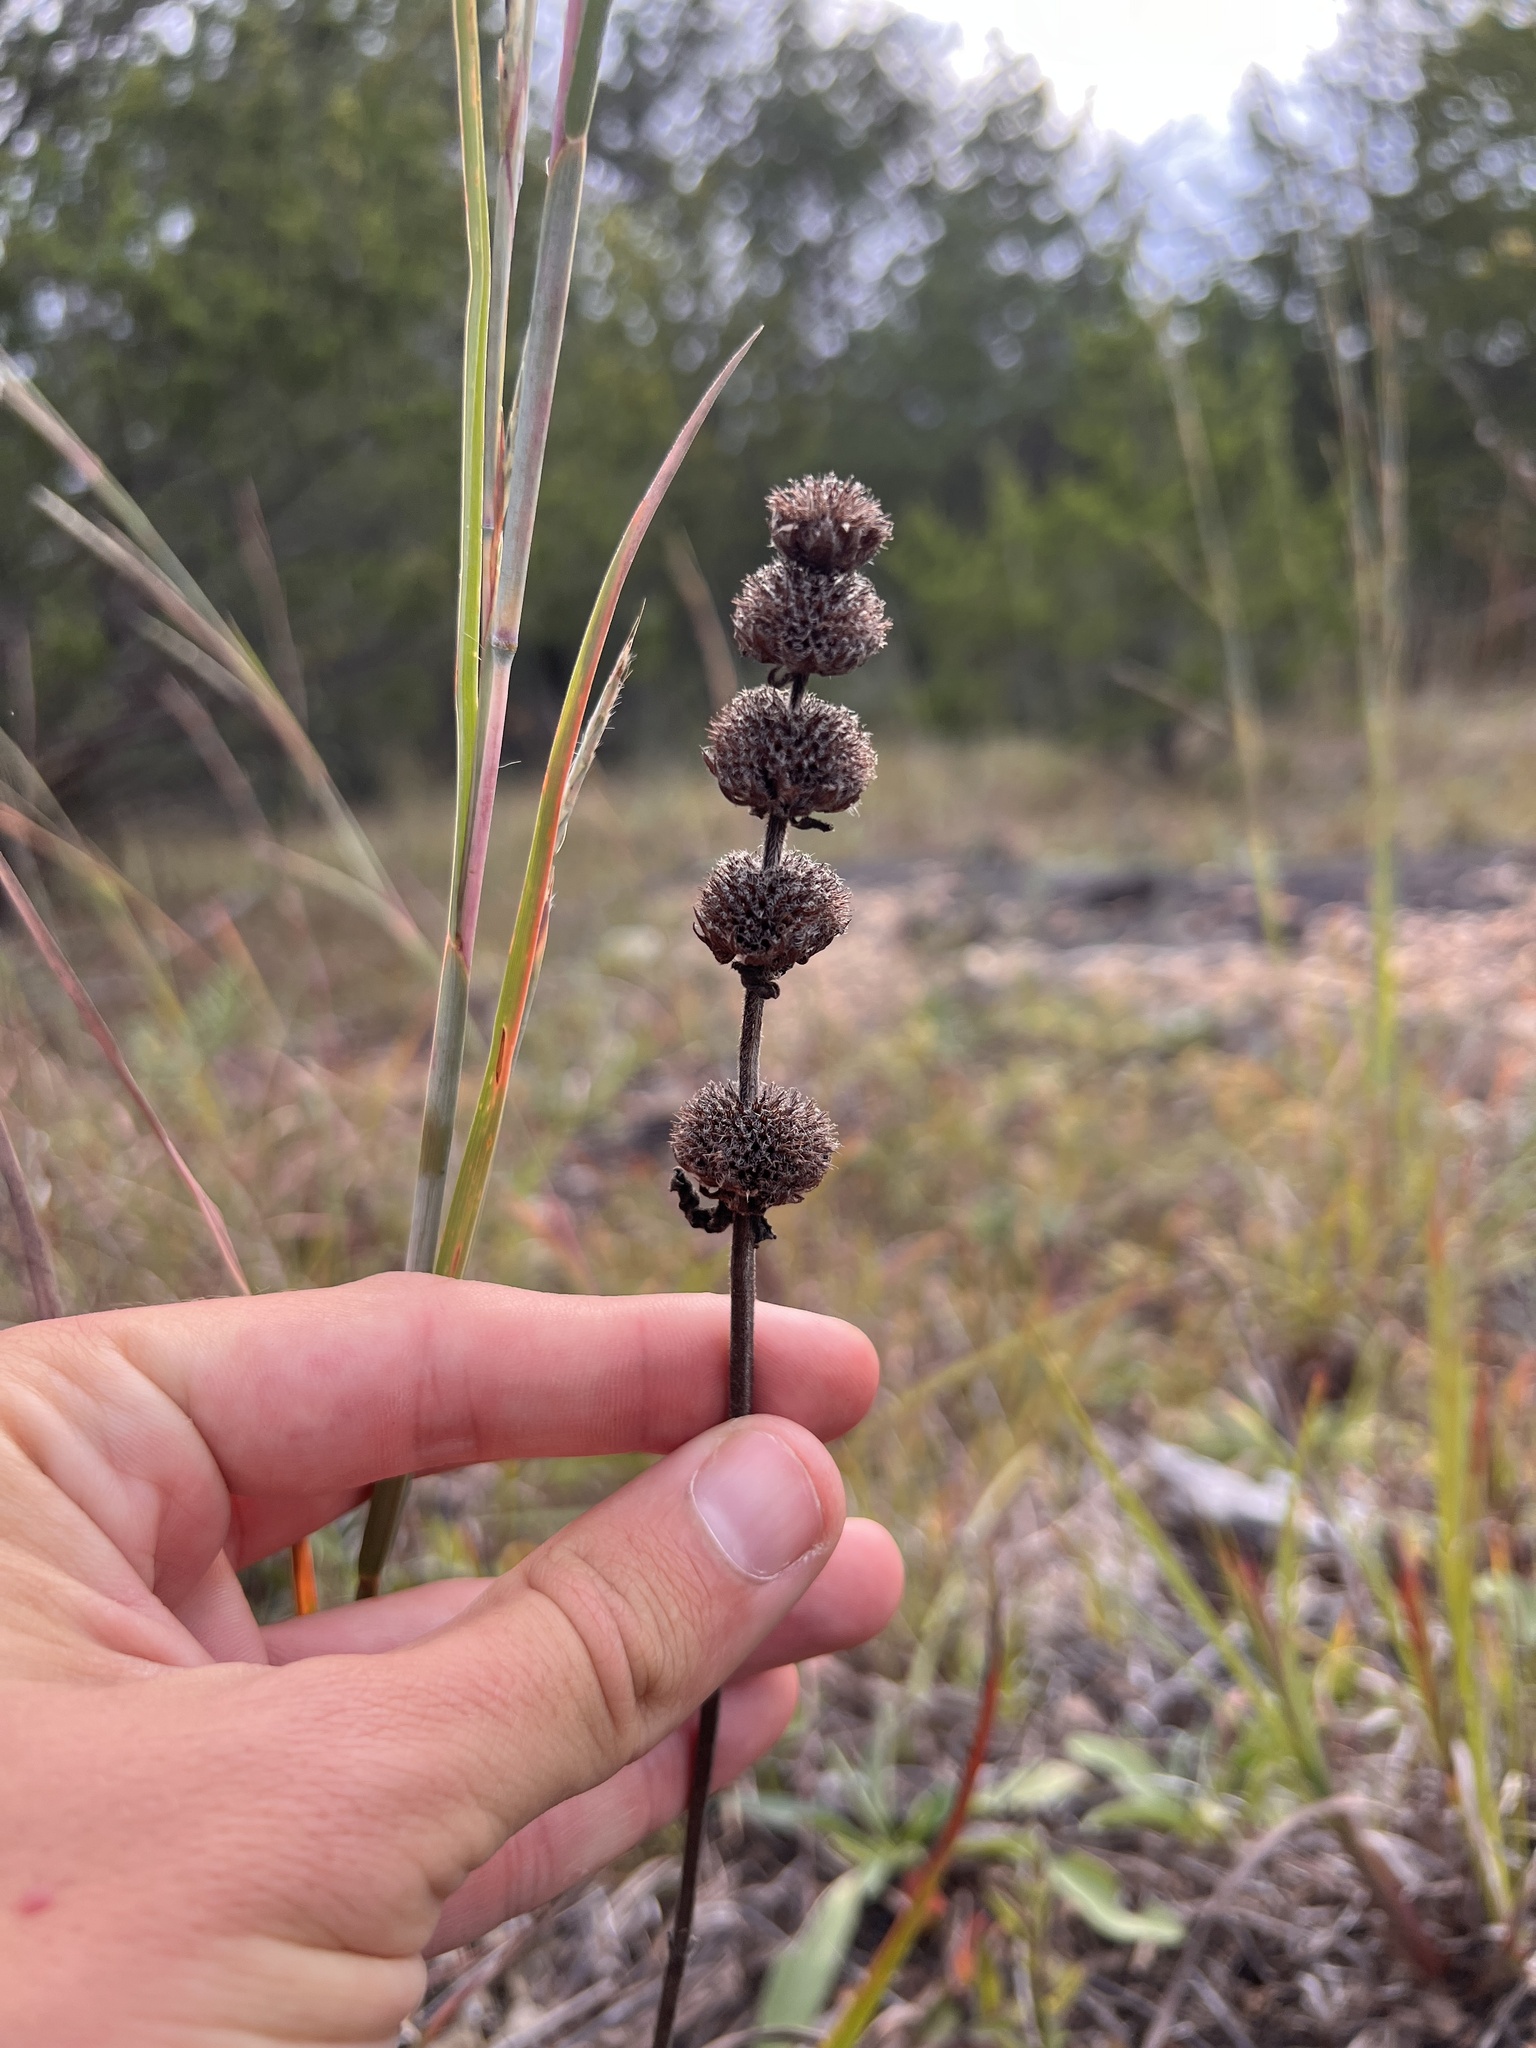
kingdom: Plantae
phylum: Tracheophyta
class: Magnoliopsida
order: Lamiales
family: Lamiaceae
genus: Blephilia
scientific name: Blephilia ciliata
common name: Downy blephilia
